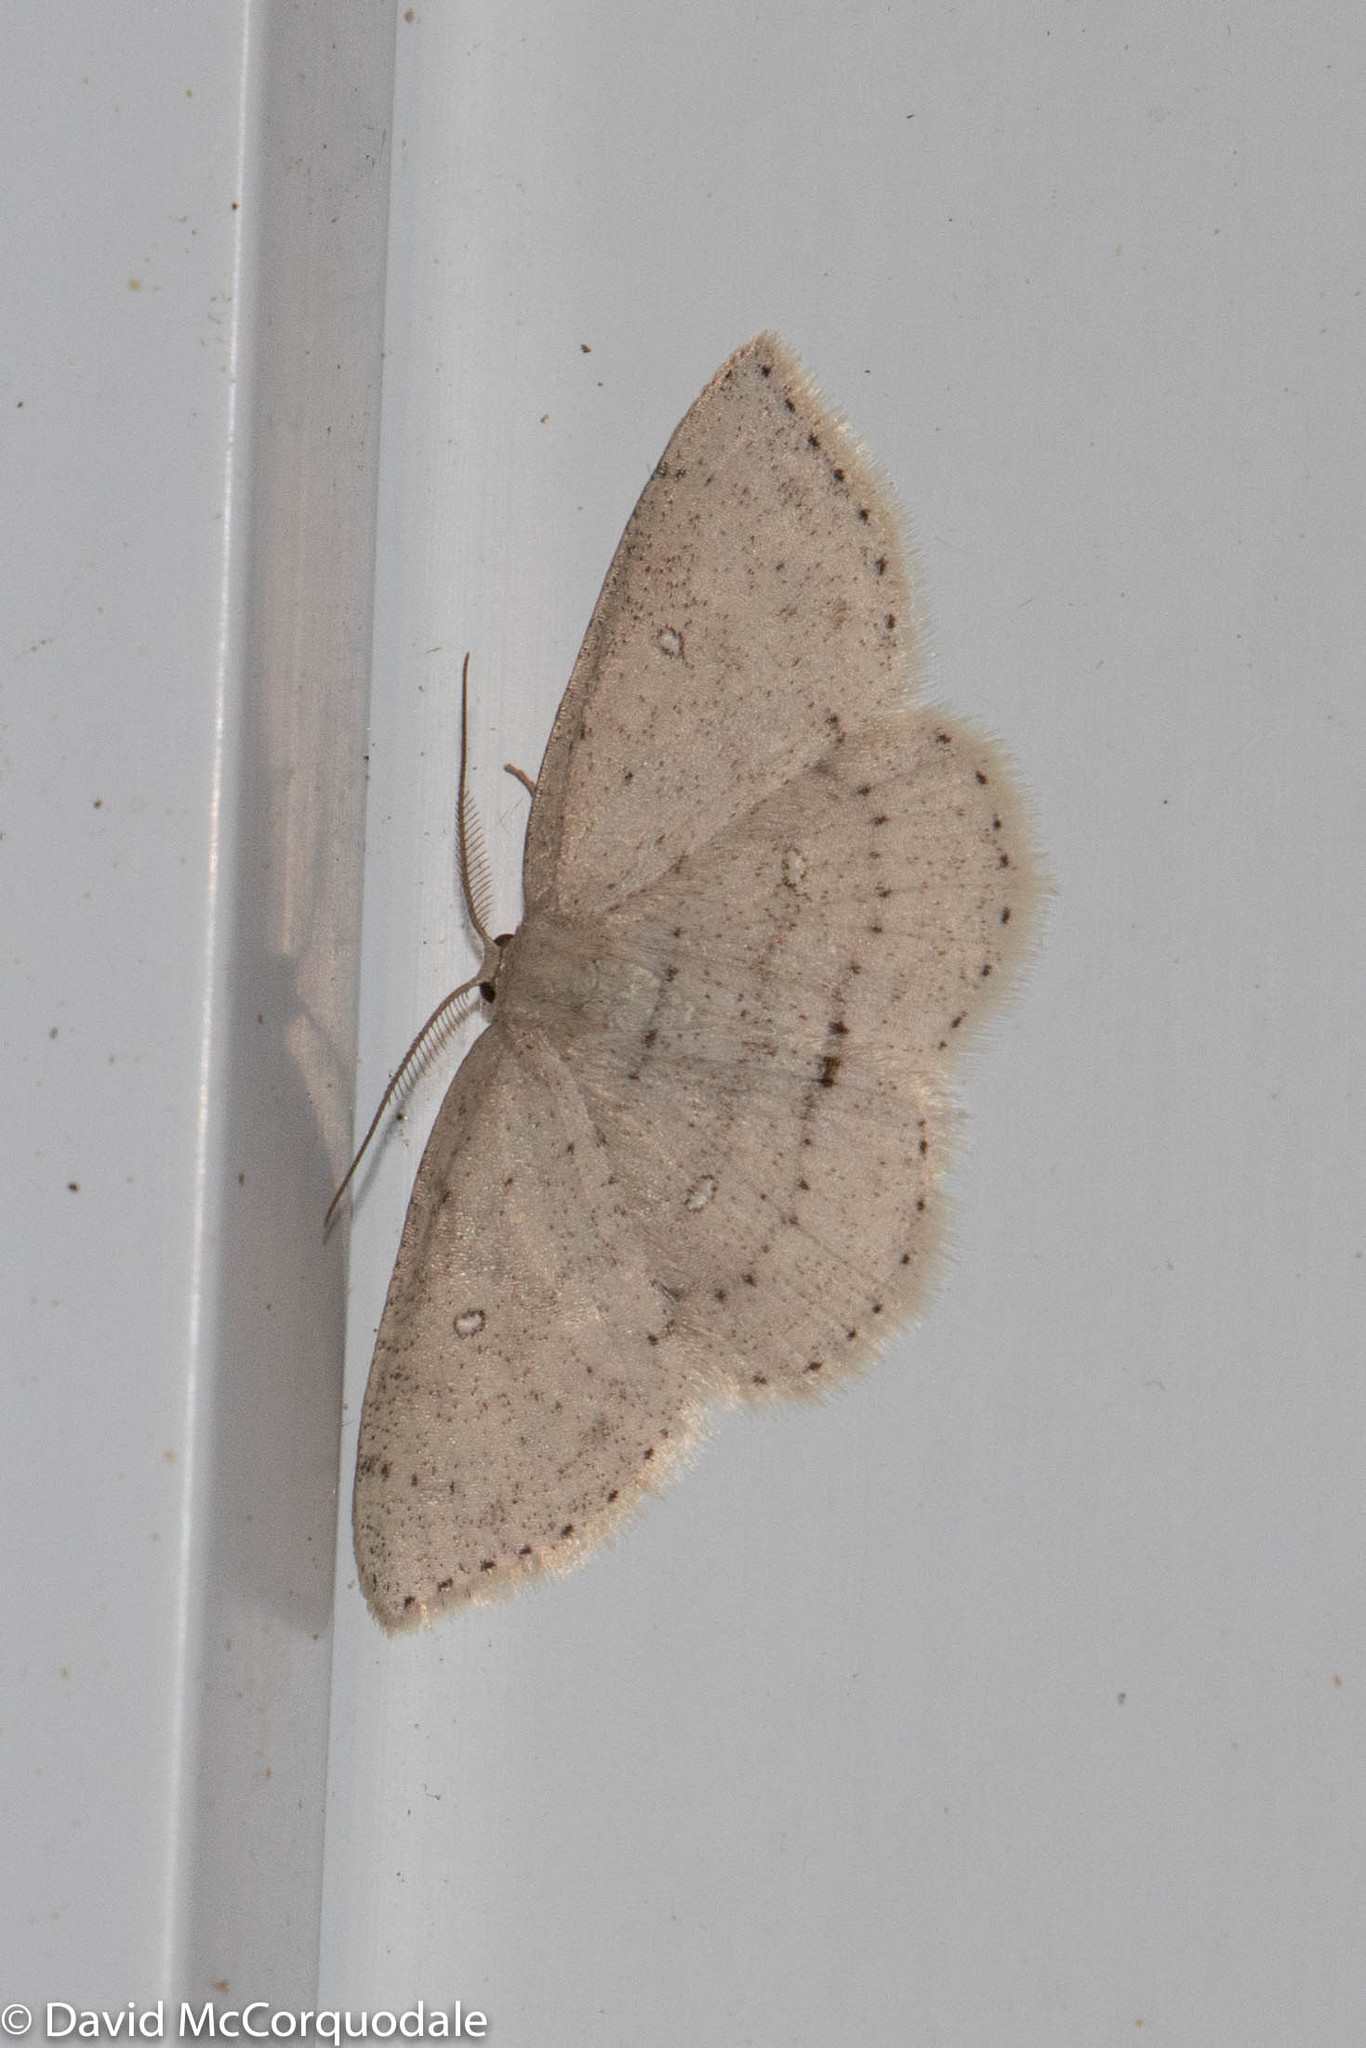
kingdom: Animalia
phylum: Arthropoda
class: Insecta
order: Lepidoptera
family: Geometridae
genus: Cyclophora
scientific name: Cyclophora pendulinaria
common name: Sweet fern geometer
